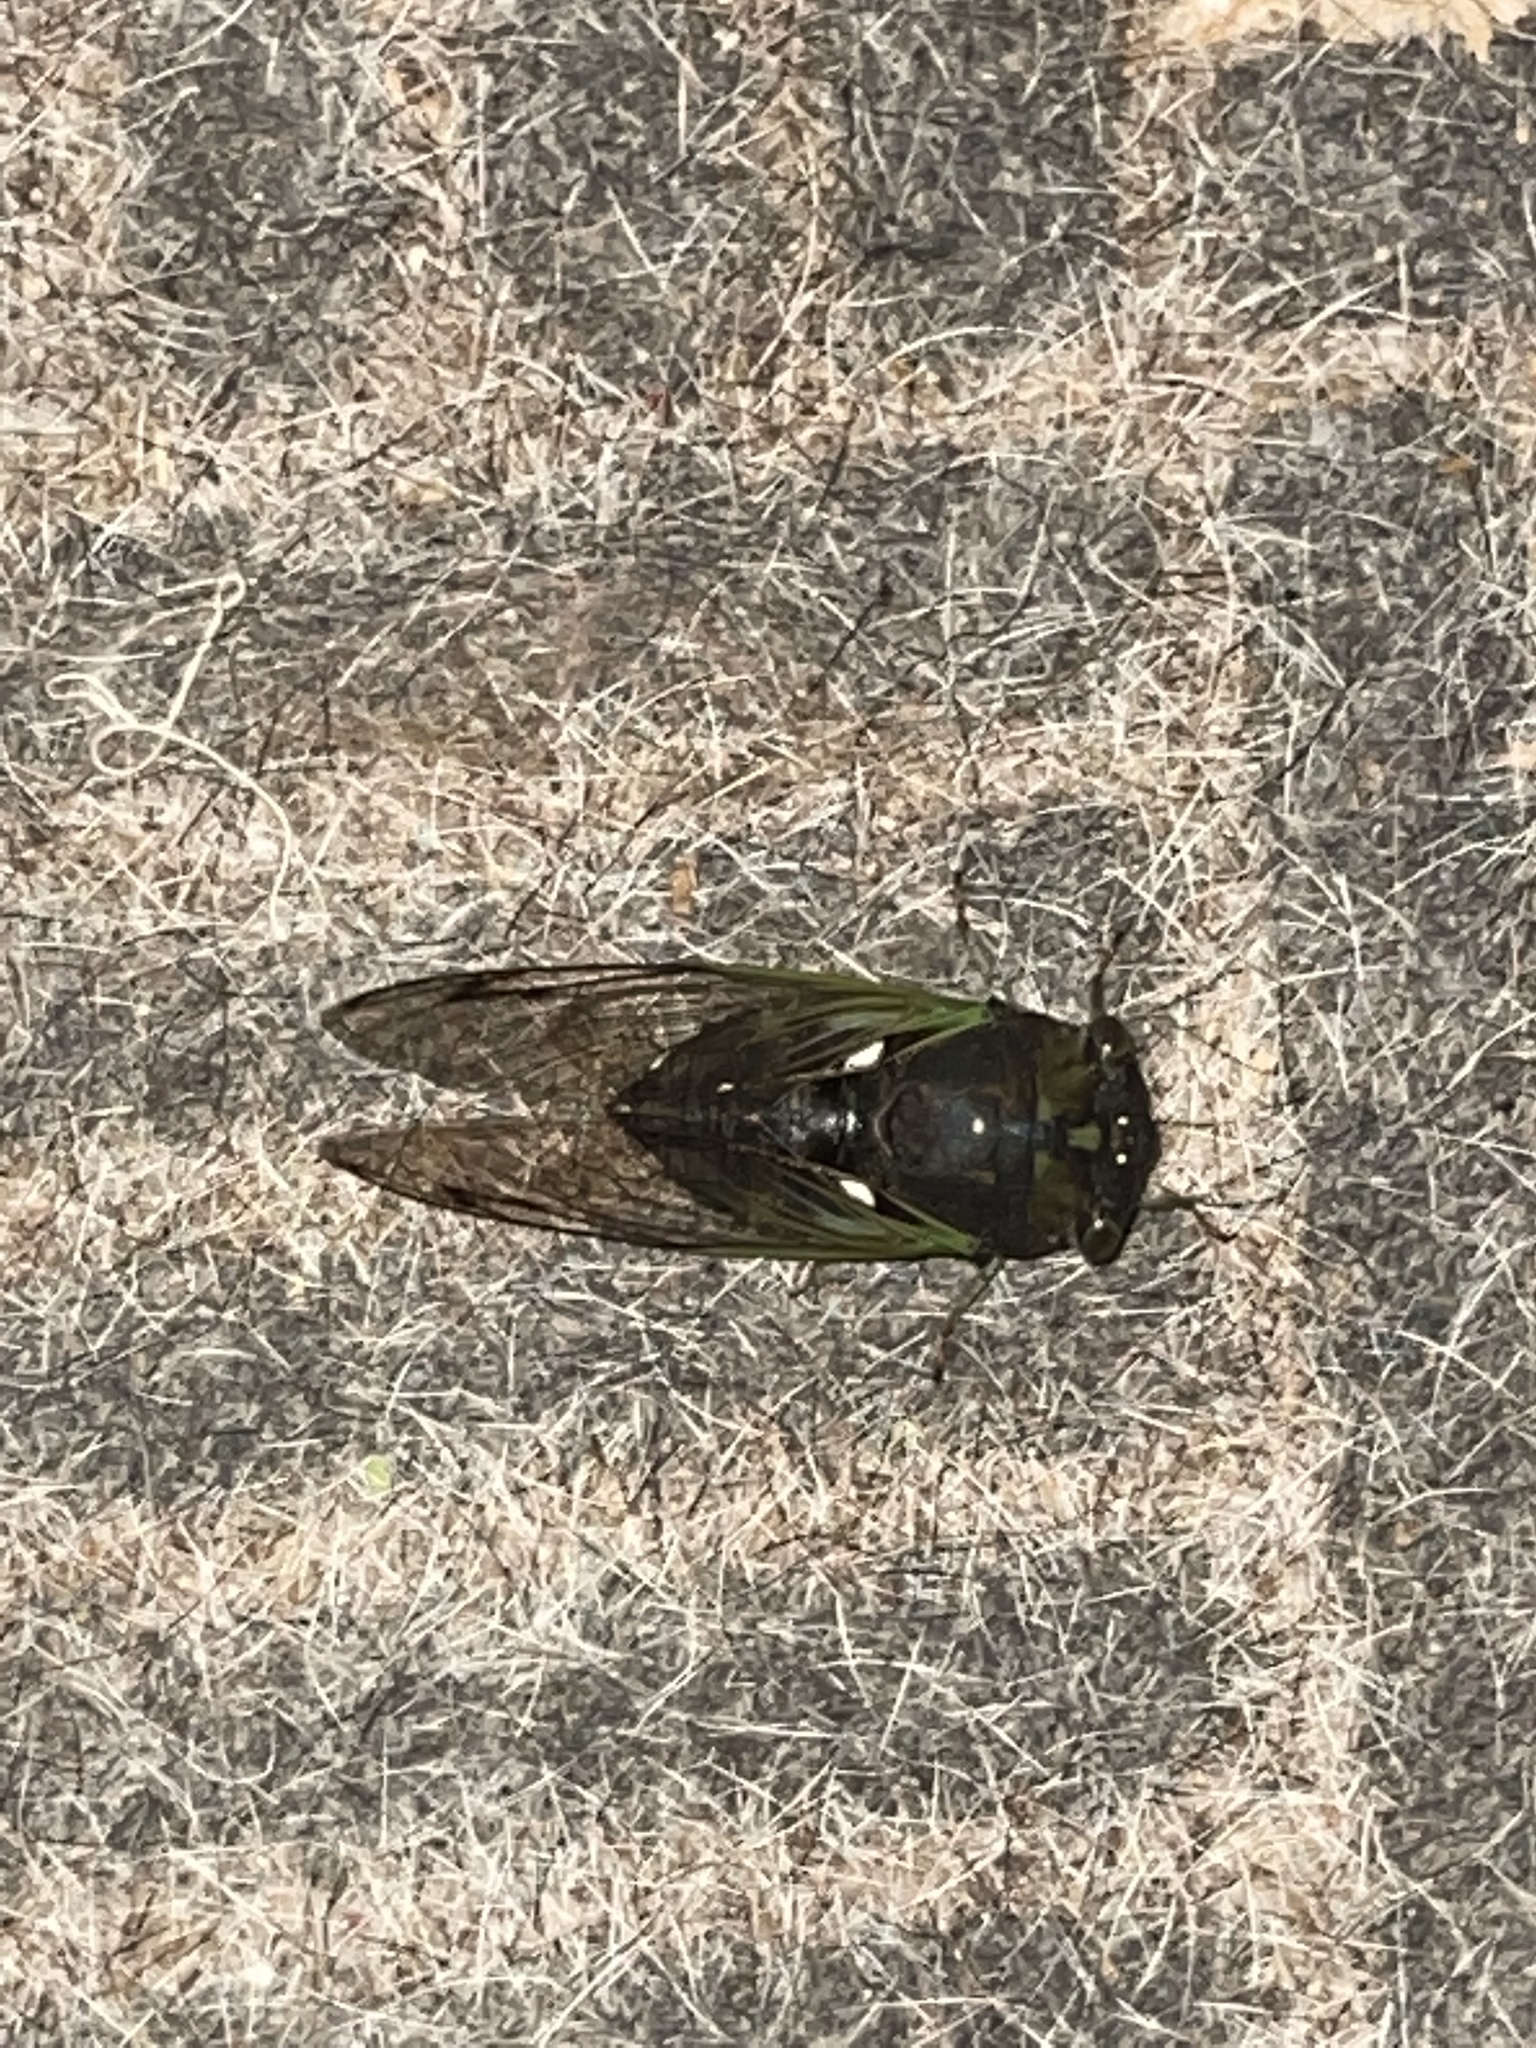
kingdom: Animalia
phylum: Arthropoda
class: Insecta
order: Hemiptera
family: Cicadidae
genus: Neotibicen
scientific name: Neotibicen tibicen
